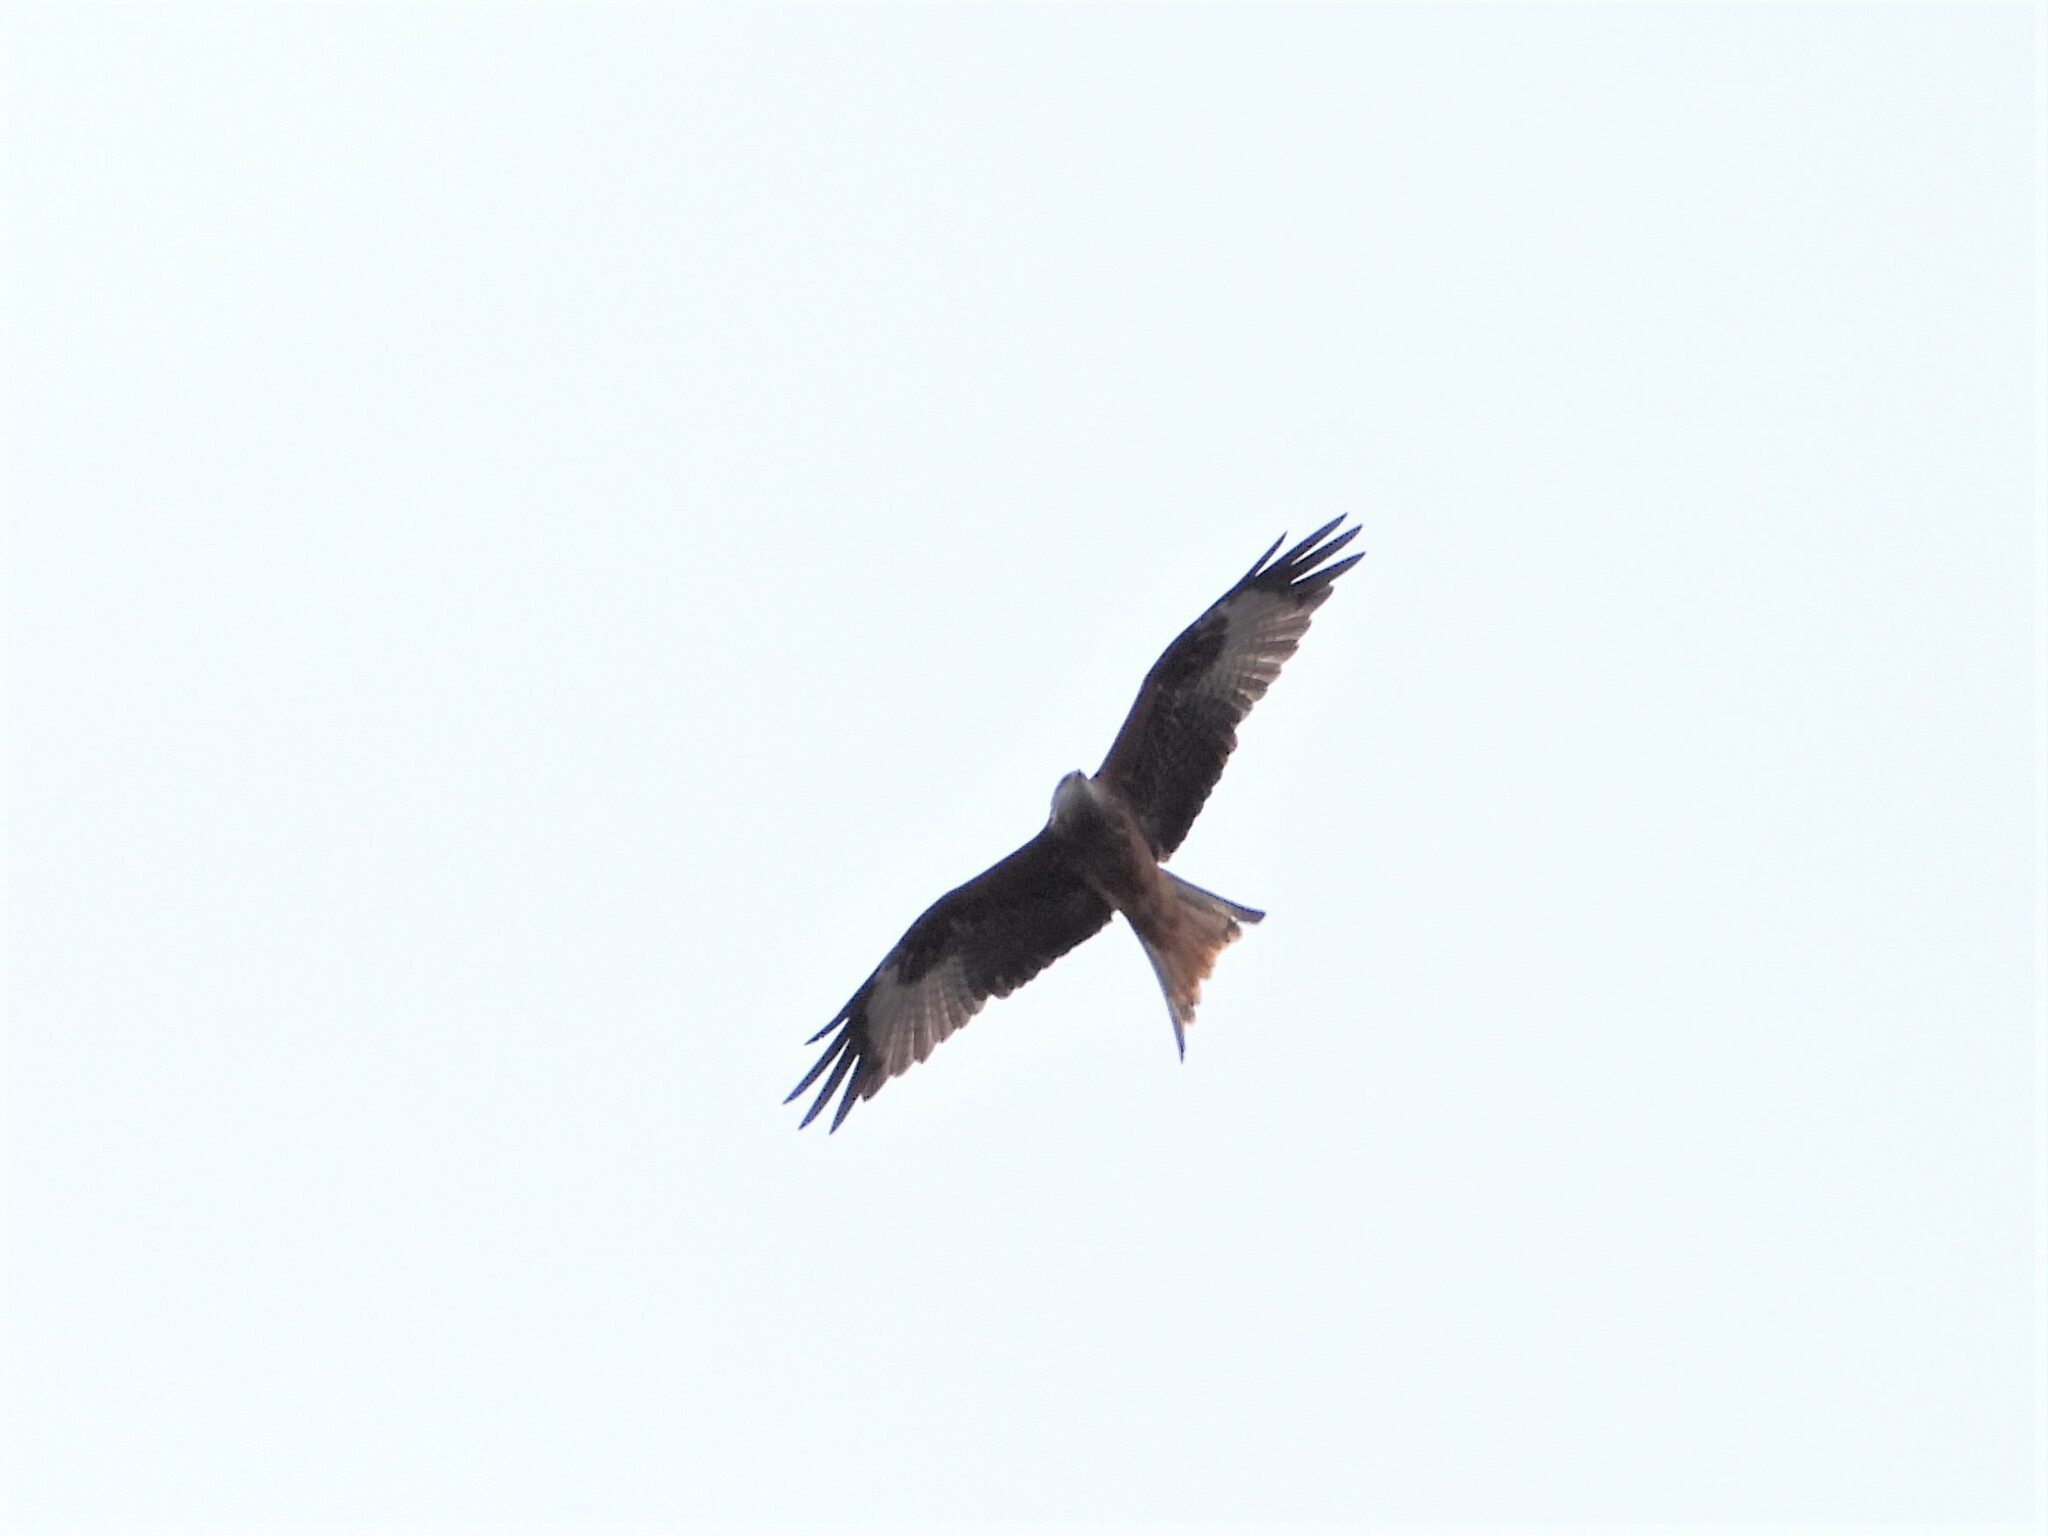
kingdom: Animalia
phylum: Chordata
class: Aves
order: Accipitriformes
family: Accipitridae
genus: Milvus
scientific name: Milvus milvus
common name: Red kite
